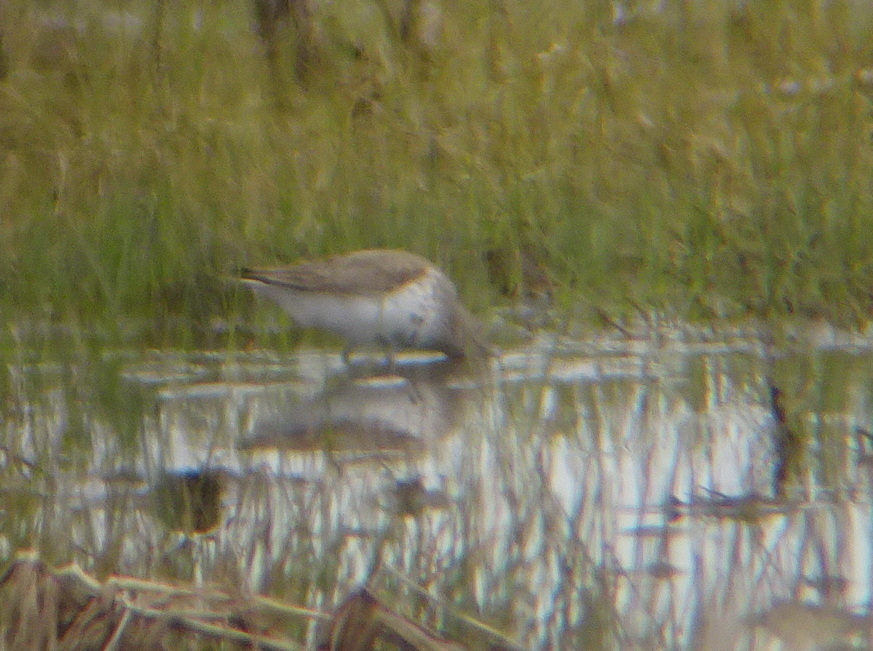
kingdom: Animalia
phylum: Chordata
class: Aves
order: Charadriiformes
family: Scolopacidae
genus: Calidris
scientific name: Calidris alpina
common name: Dunlin
